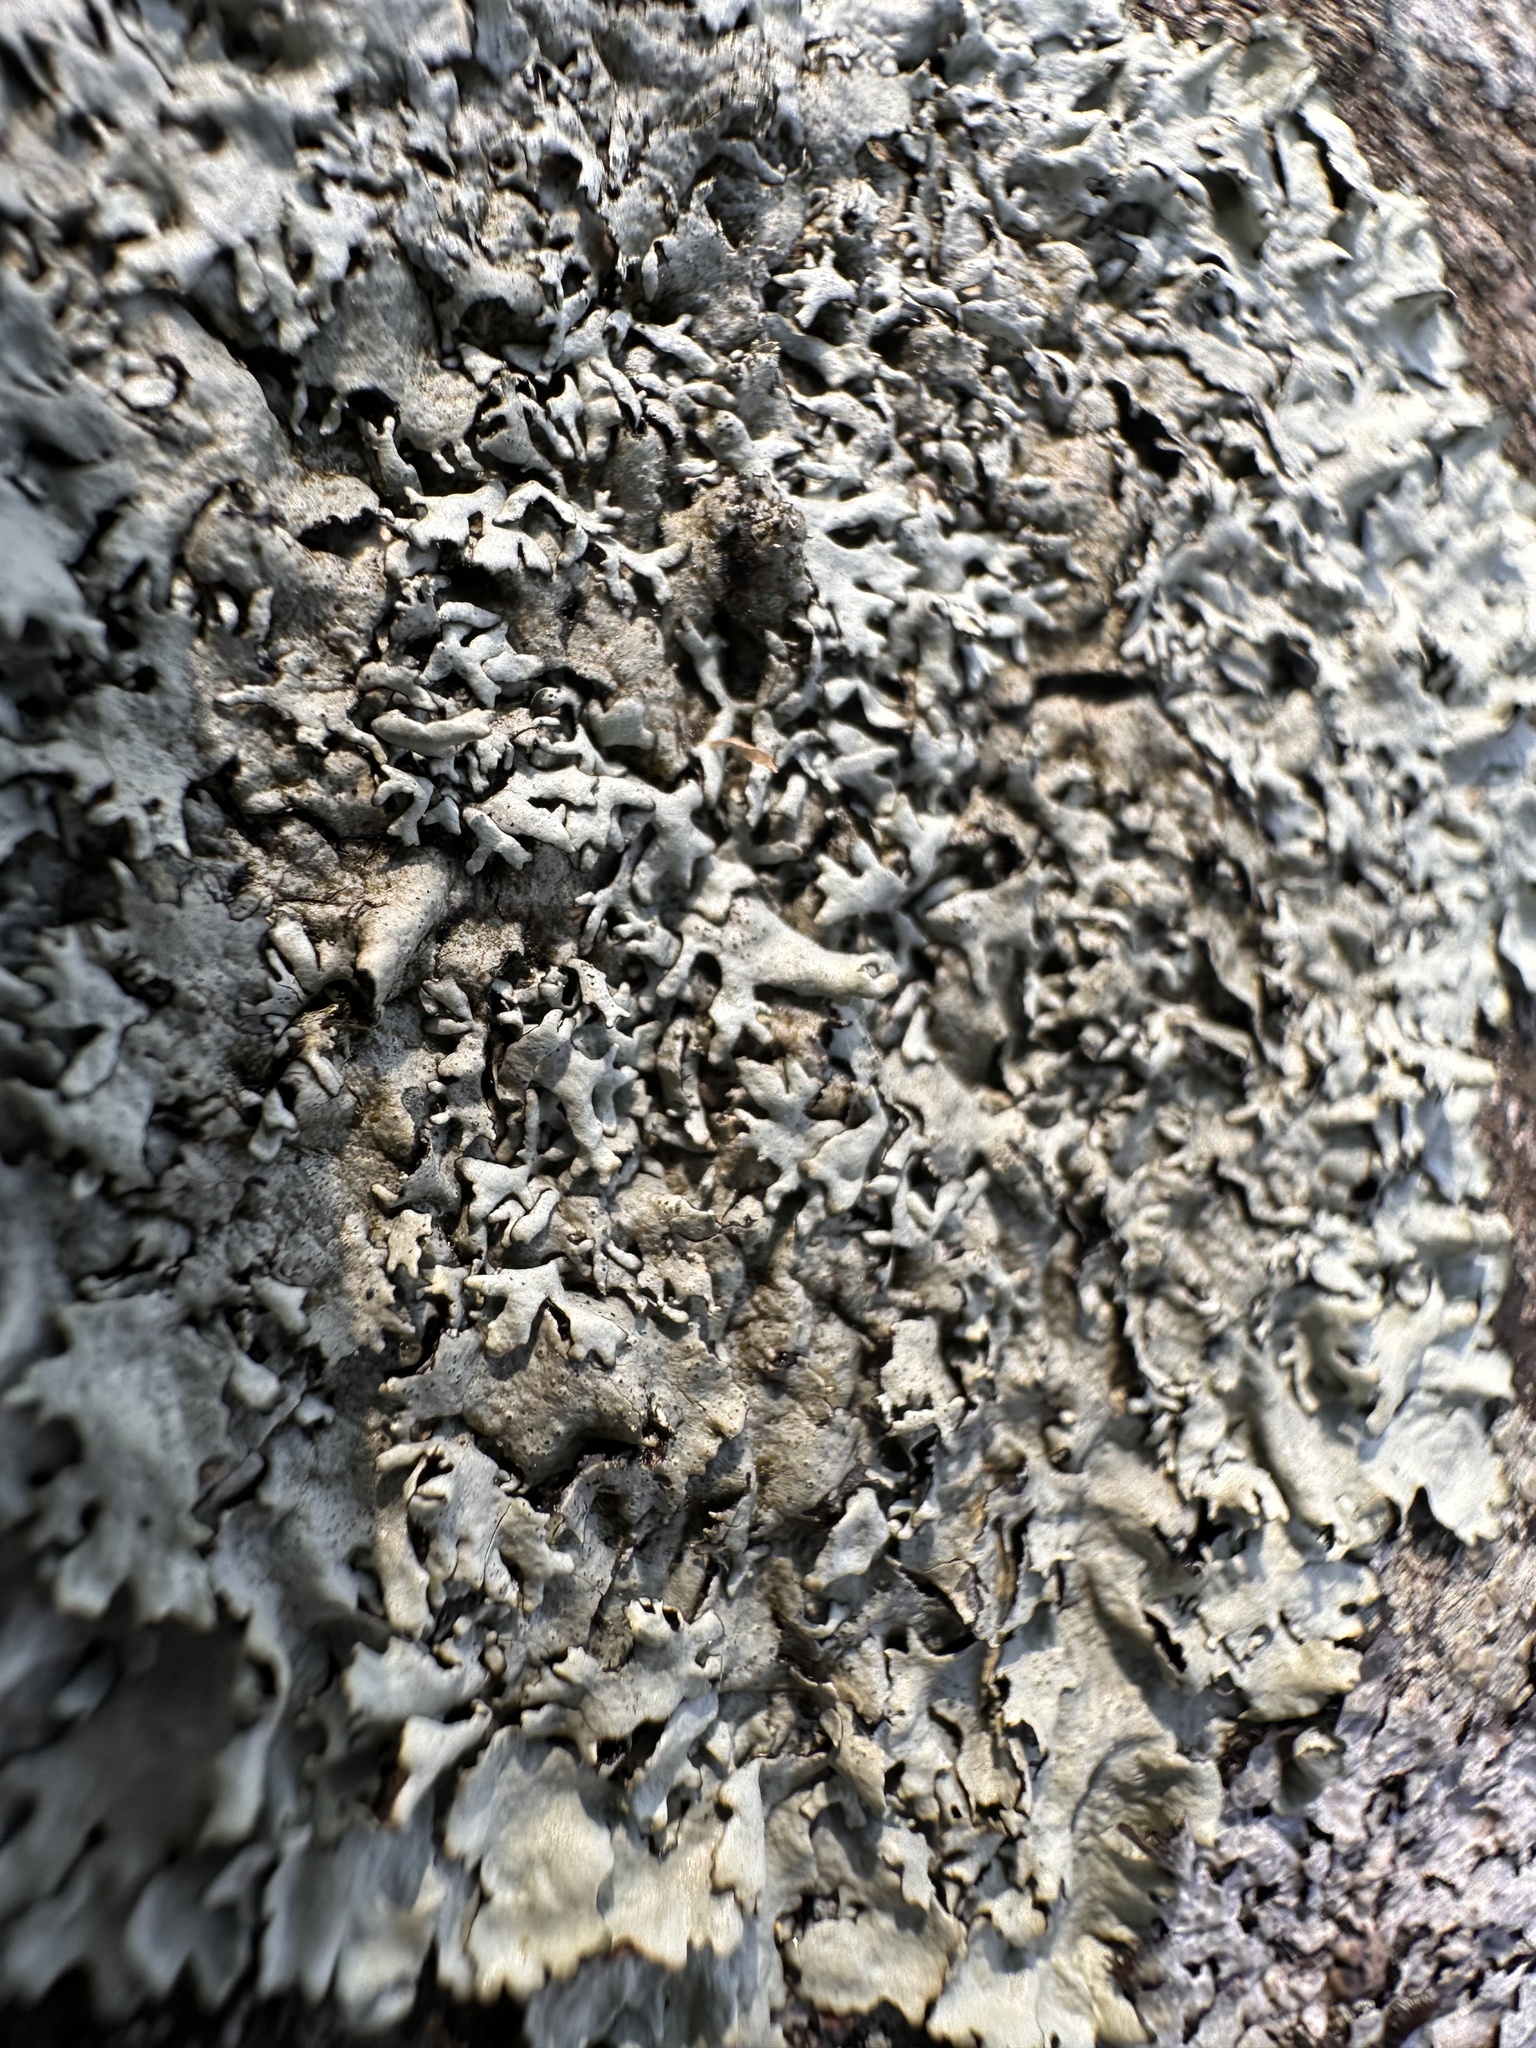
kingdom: Fungi
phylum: Ascomycota
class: Lecanoromycetes
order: Lecanorales
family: Parmeliaceae
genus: Xanthoparmelia
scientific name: Xanthoparmelia stenophylla
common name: Shingled rock shield
